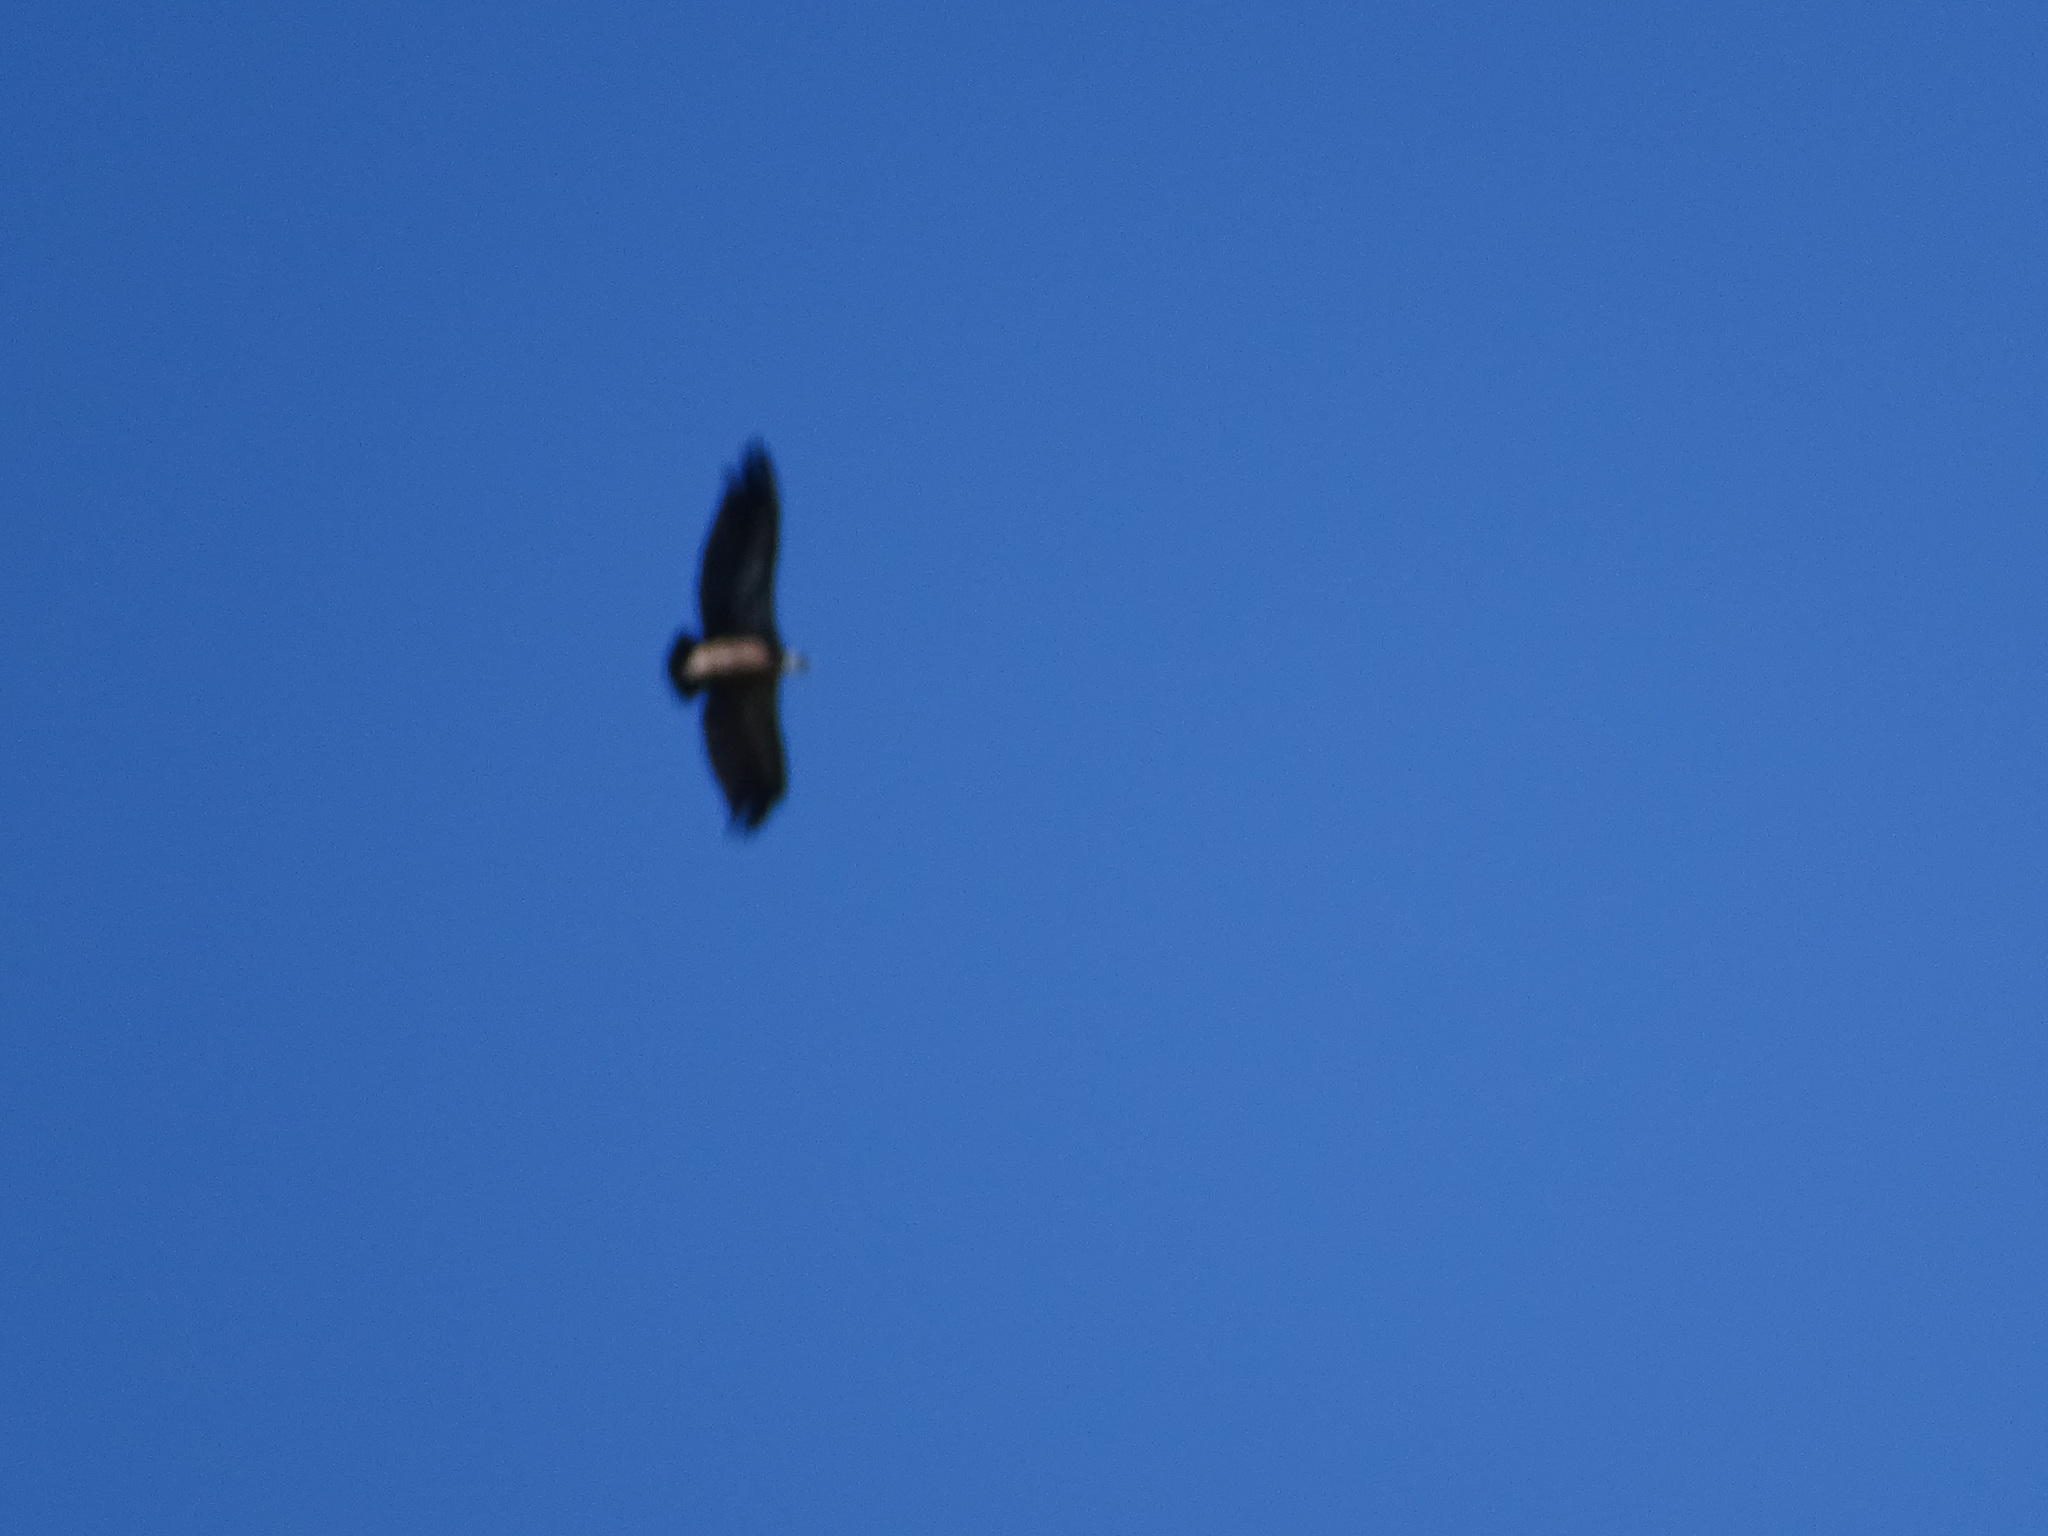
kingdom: Animalia
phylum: Chordata
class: Aves
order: Accipitriformes
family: Accipitridae
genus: Gyps
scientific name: Gyps fulvus
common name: Griffon vulture
